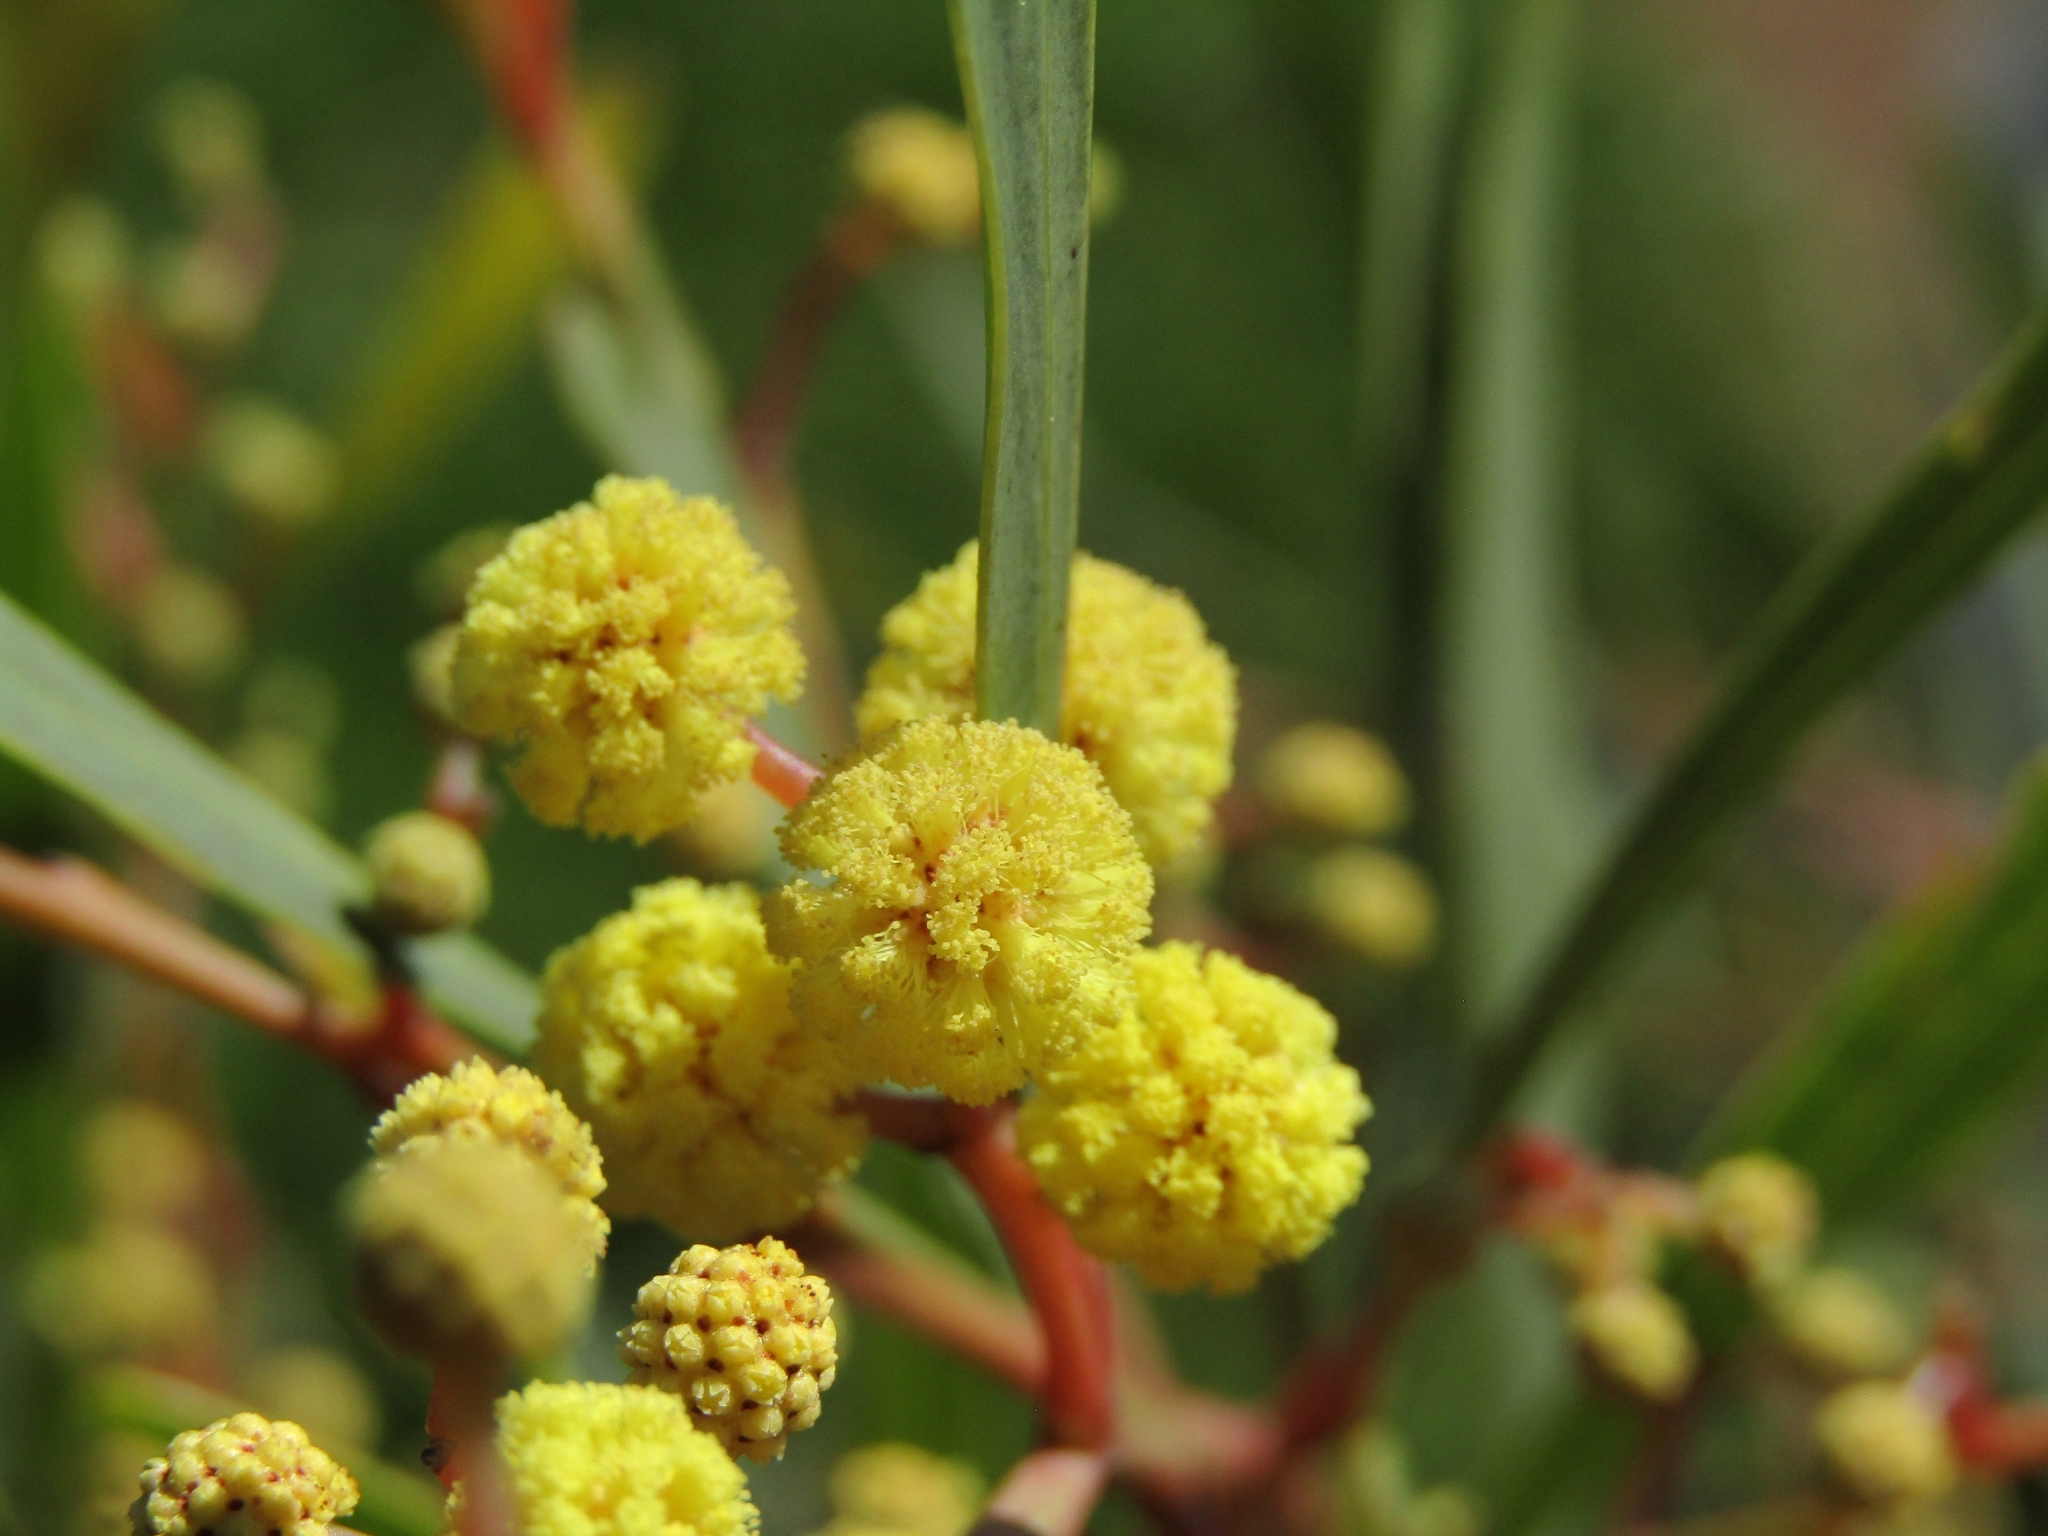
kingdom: Plantae
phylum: Tracheophyta
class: Magnoliopsida
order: Fabales
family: Fabaceae
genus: Acacia
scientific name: Acacia saligna
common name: Orange wattle
